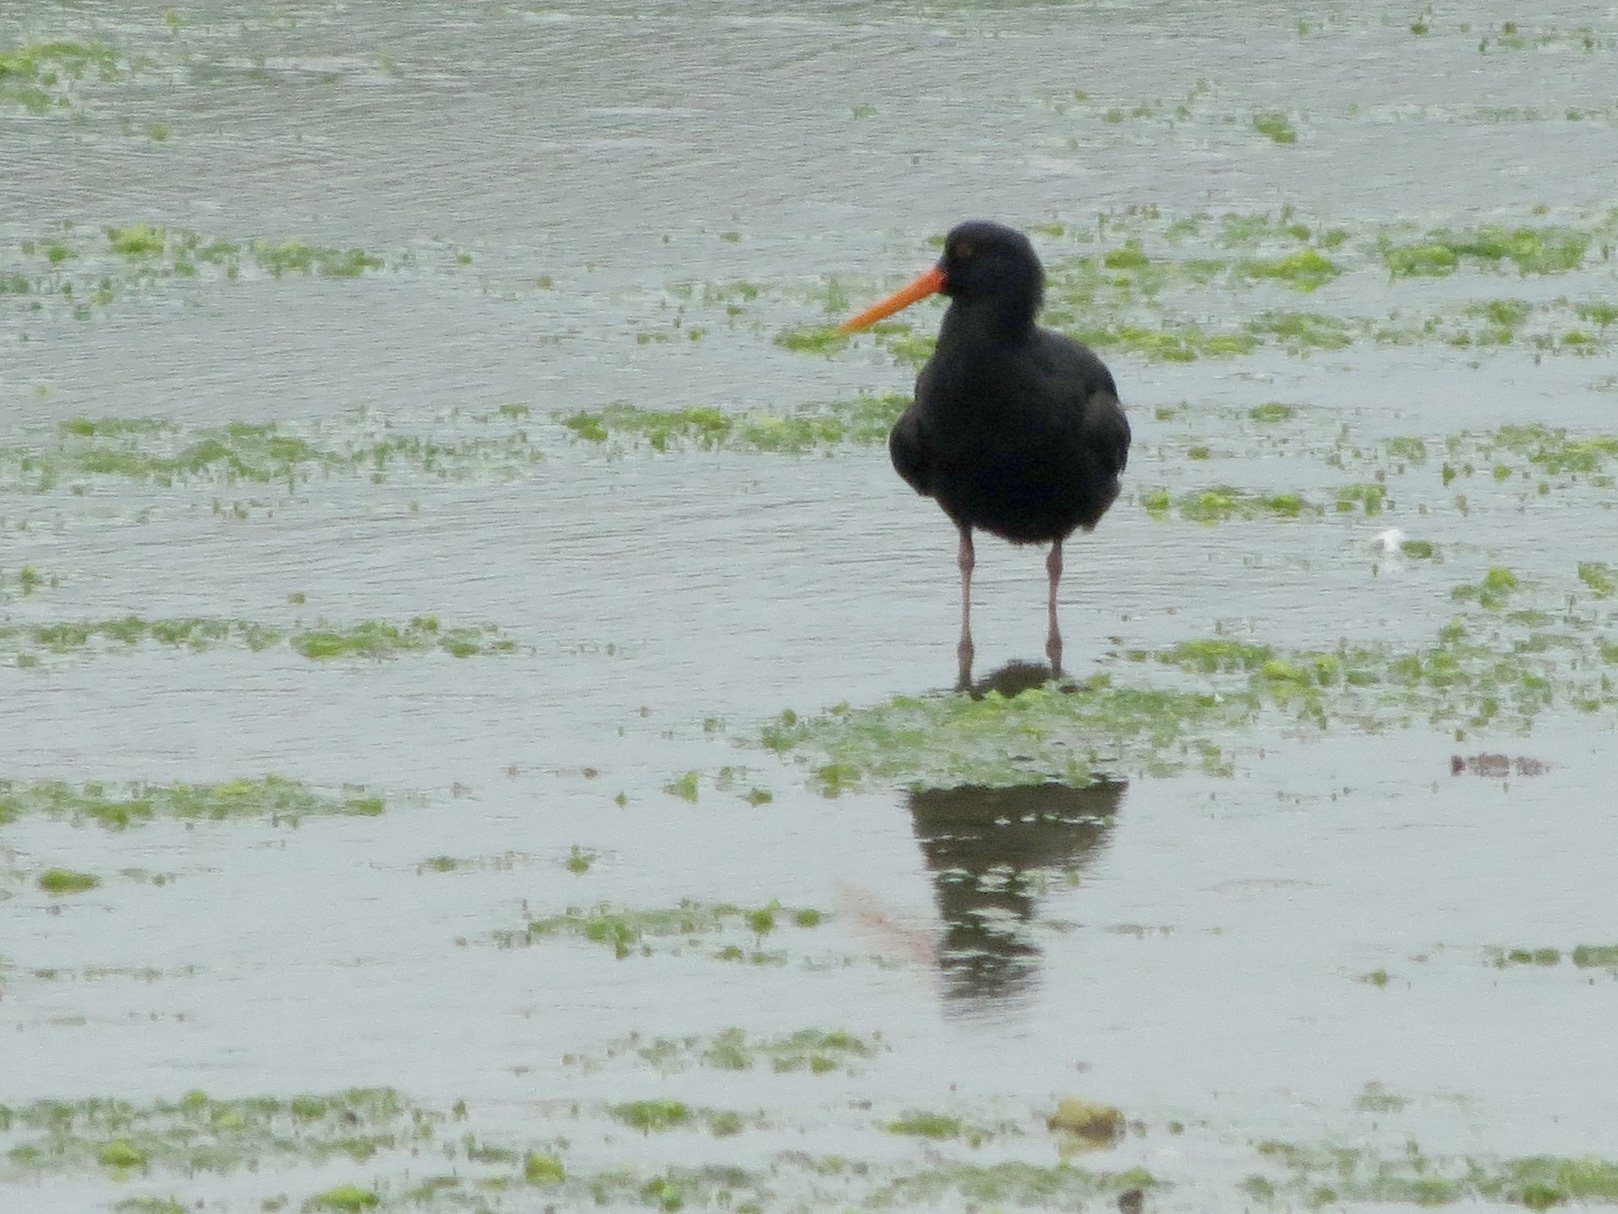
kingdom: Animalia
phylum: Chordata
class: Aves
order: Charadriiformes
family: Haematopodidae
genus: Haematopus
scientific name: Haematopus unicolor
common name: Variable oystercatcher
